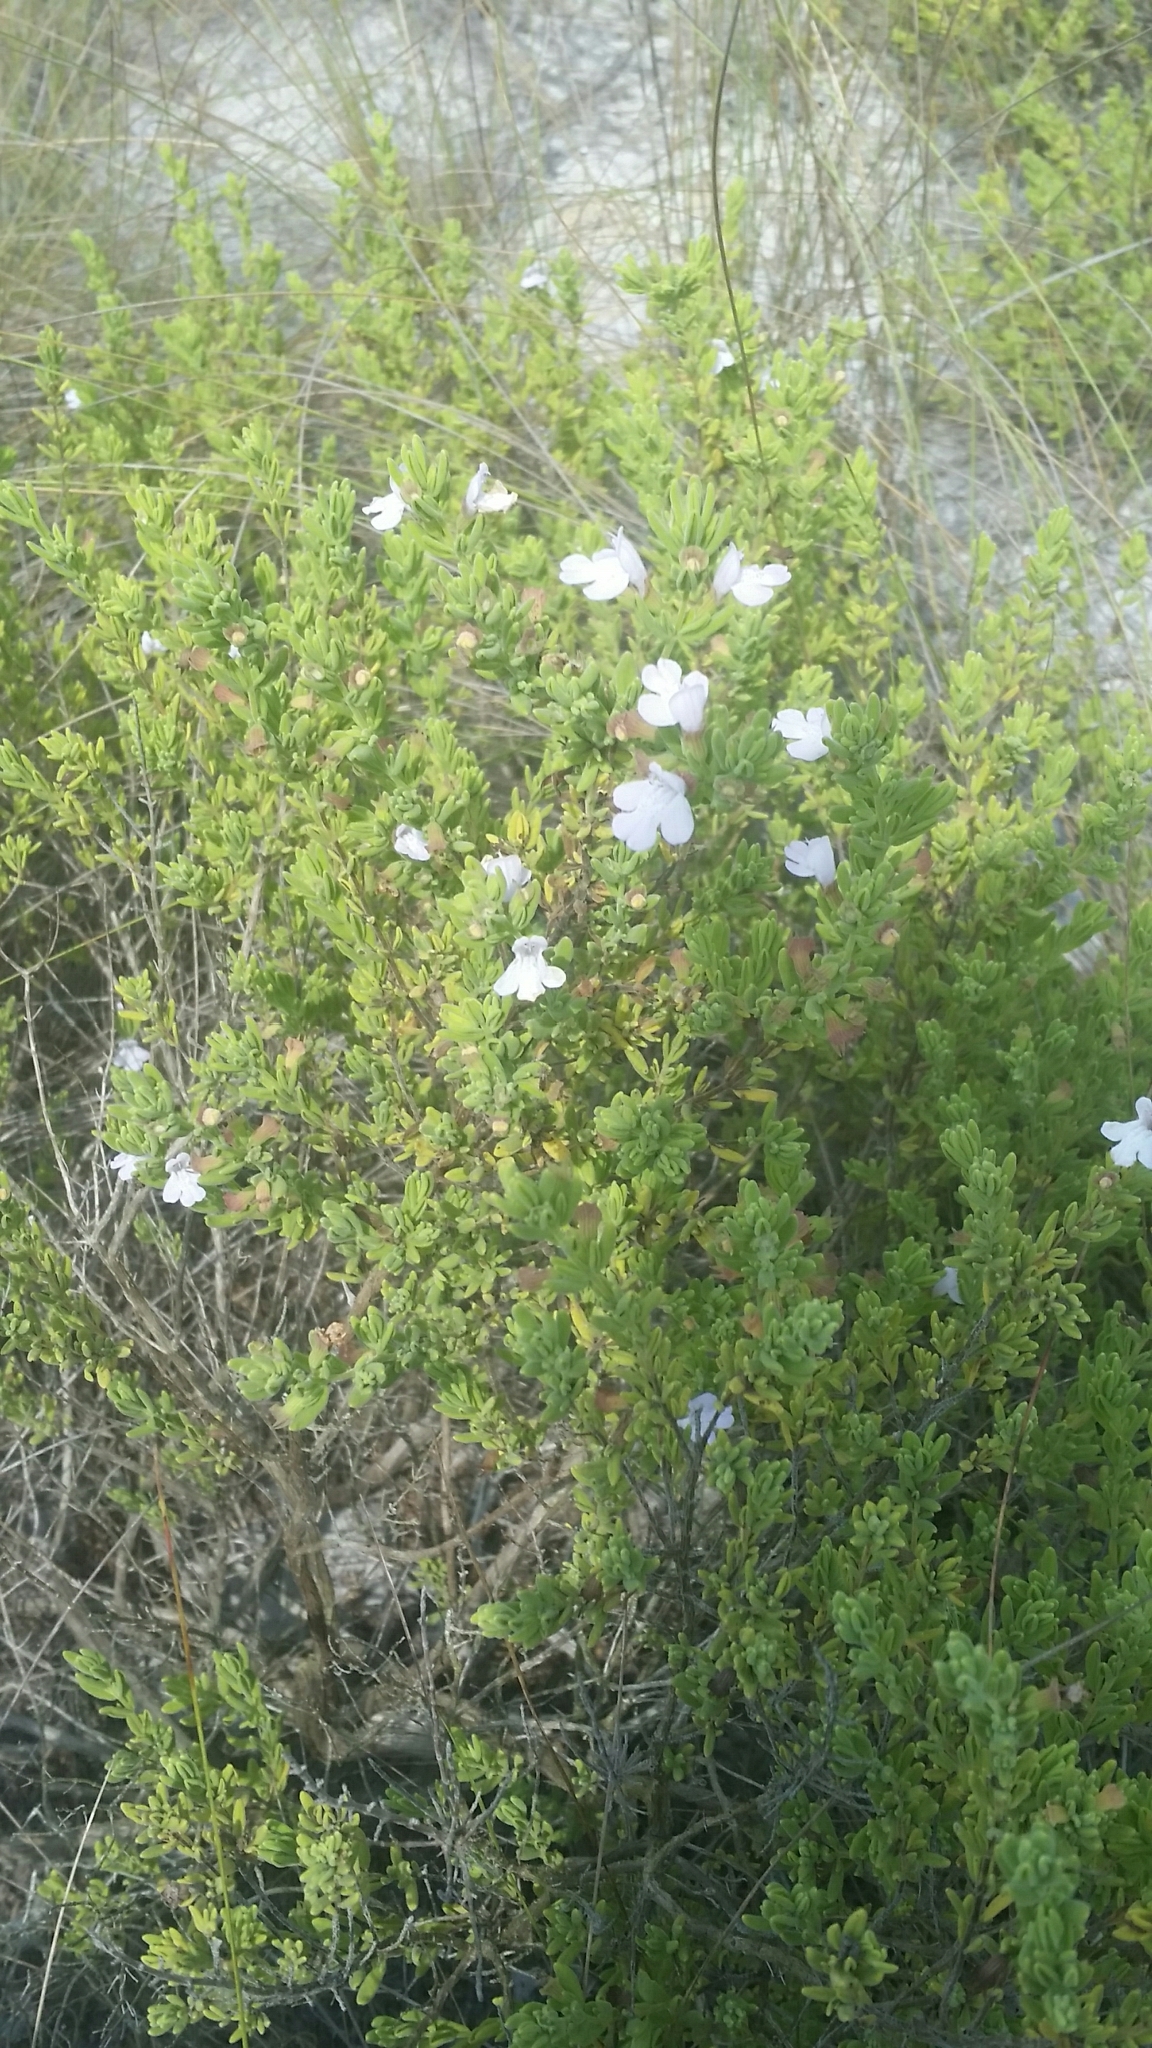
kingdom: Plantae
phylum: Tracheophyta
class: Magnoliopsida
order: Lamiales
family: Lamiaceae
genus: Clinopodium
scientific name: Clinopodium ashei
